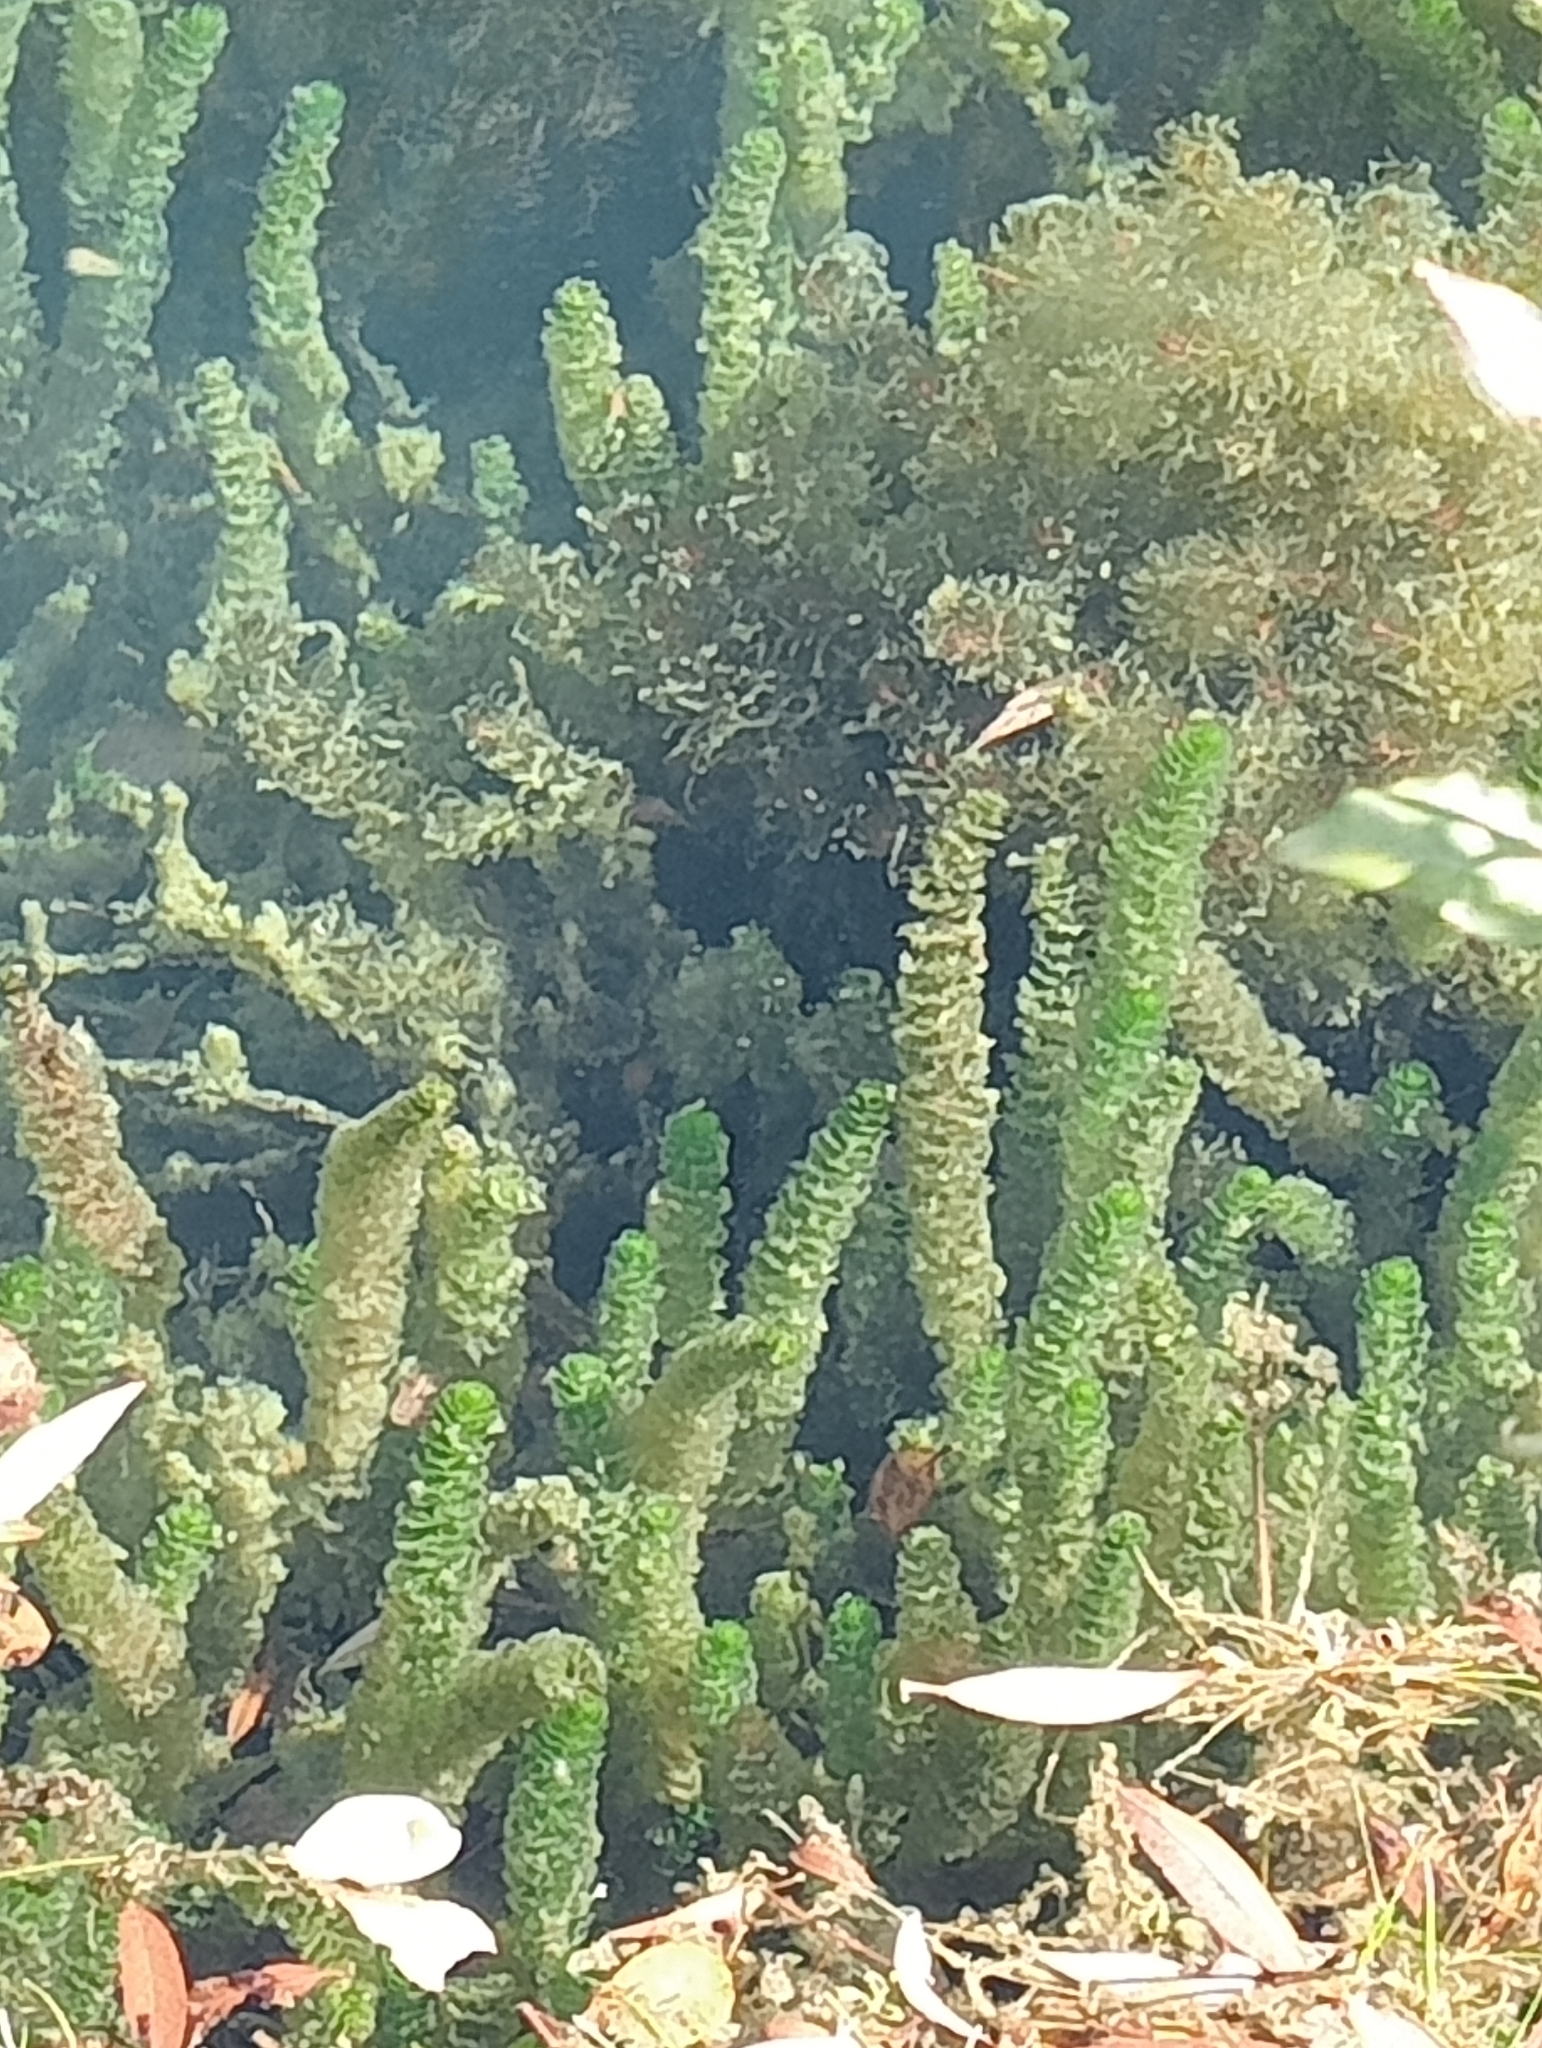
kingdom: Plantae
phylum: Tracheophyta
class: Liliopsida
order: Alismatales
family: Hydrocharitaceae
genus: Lagarosiphon
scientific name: Lagarosiphon major
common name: Curly waterweed
